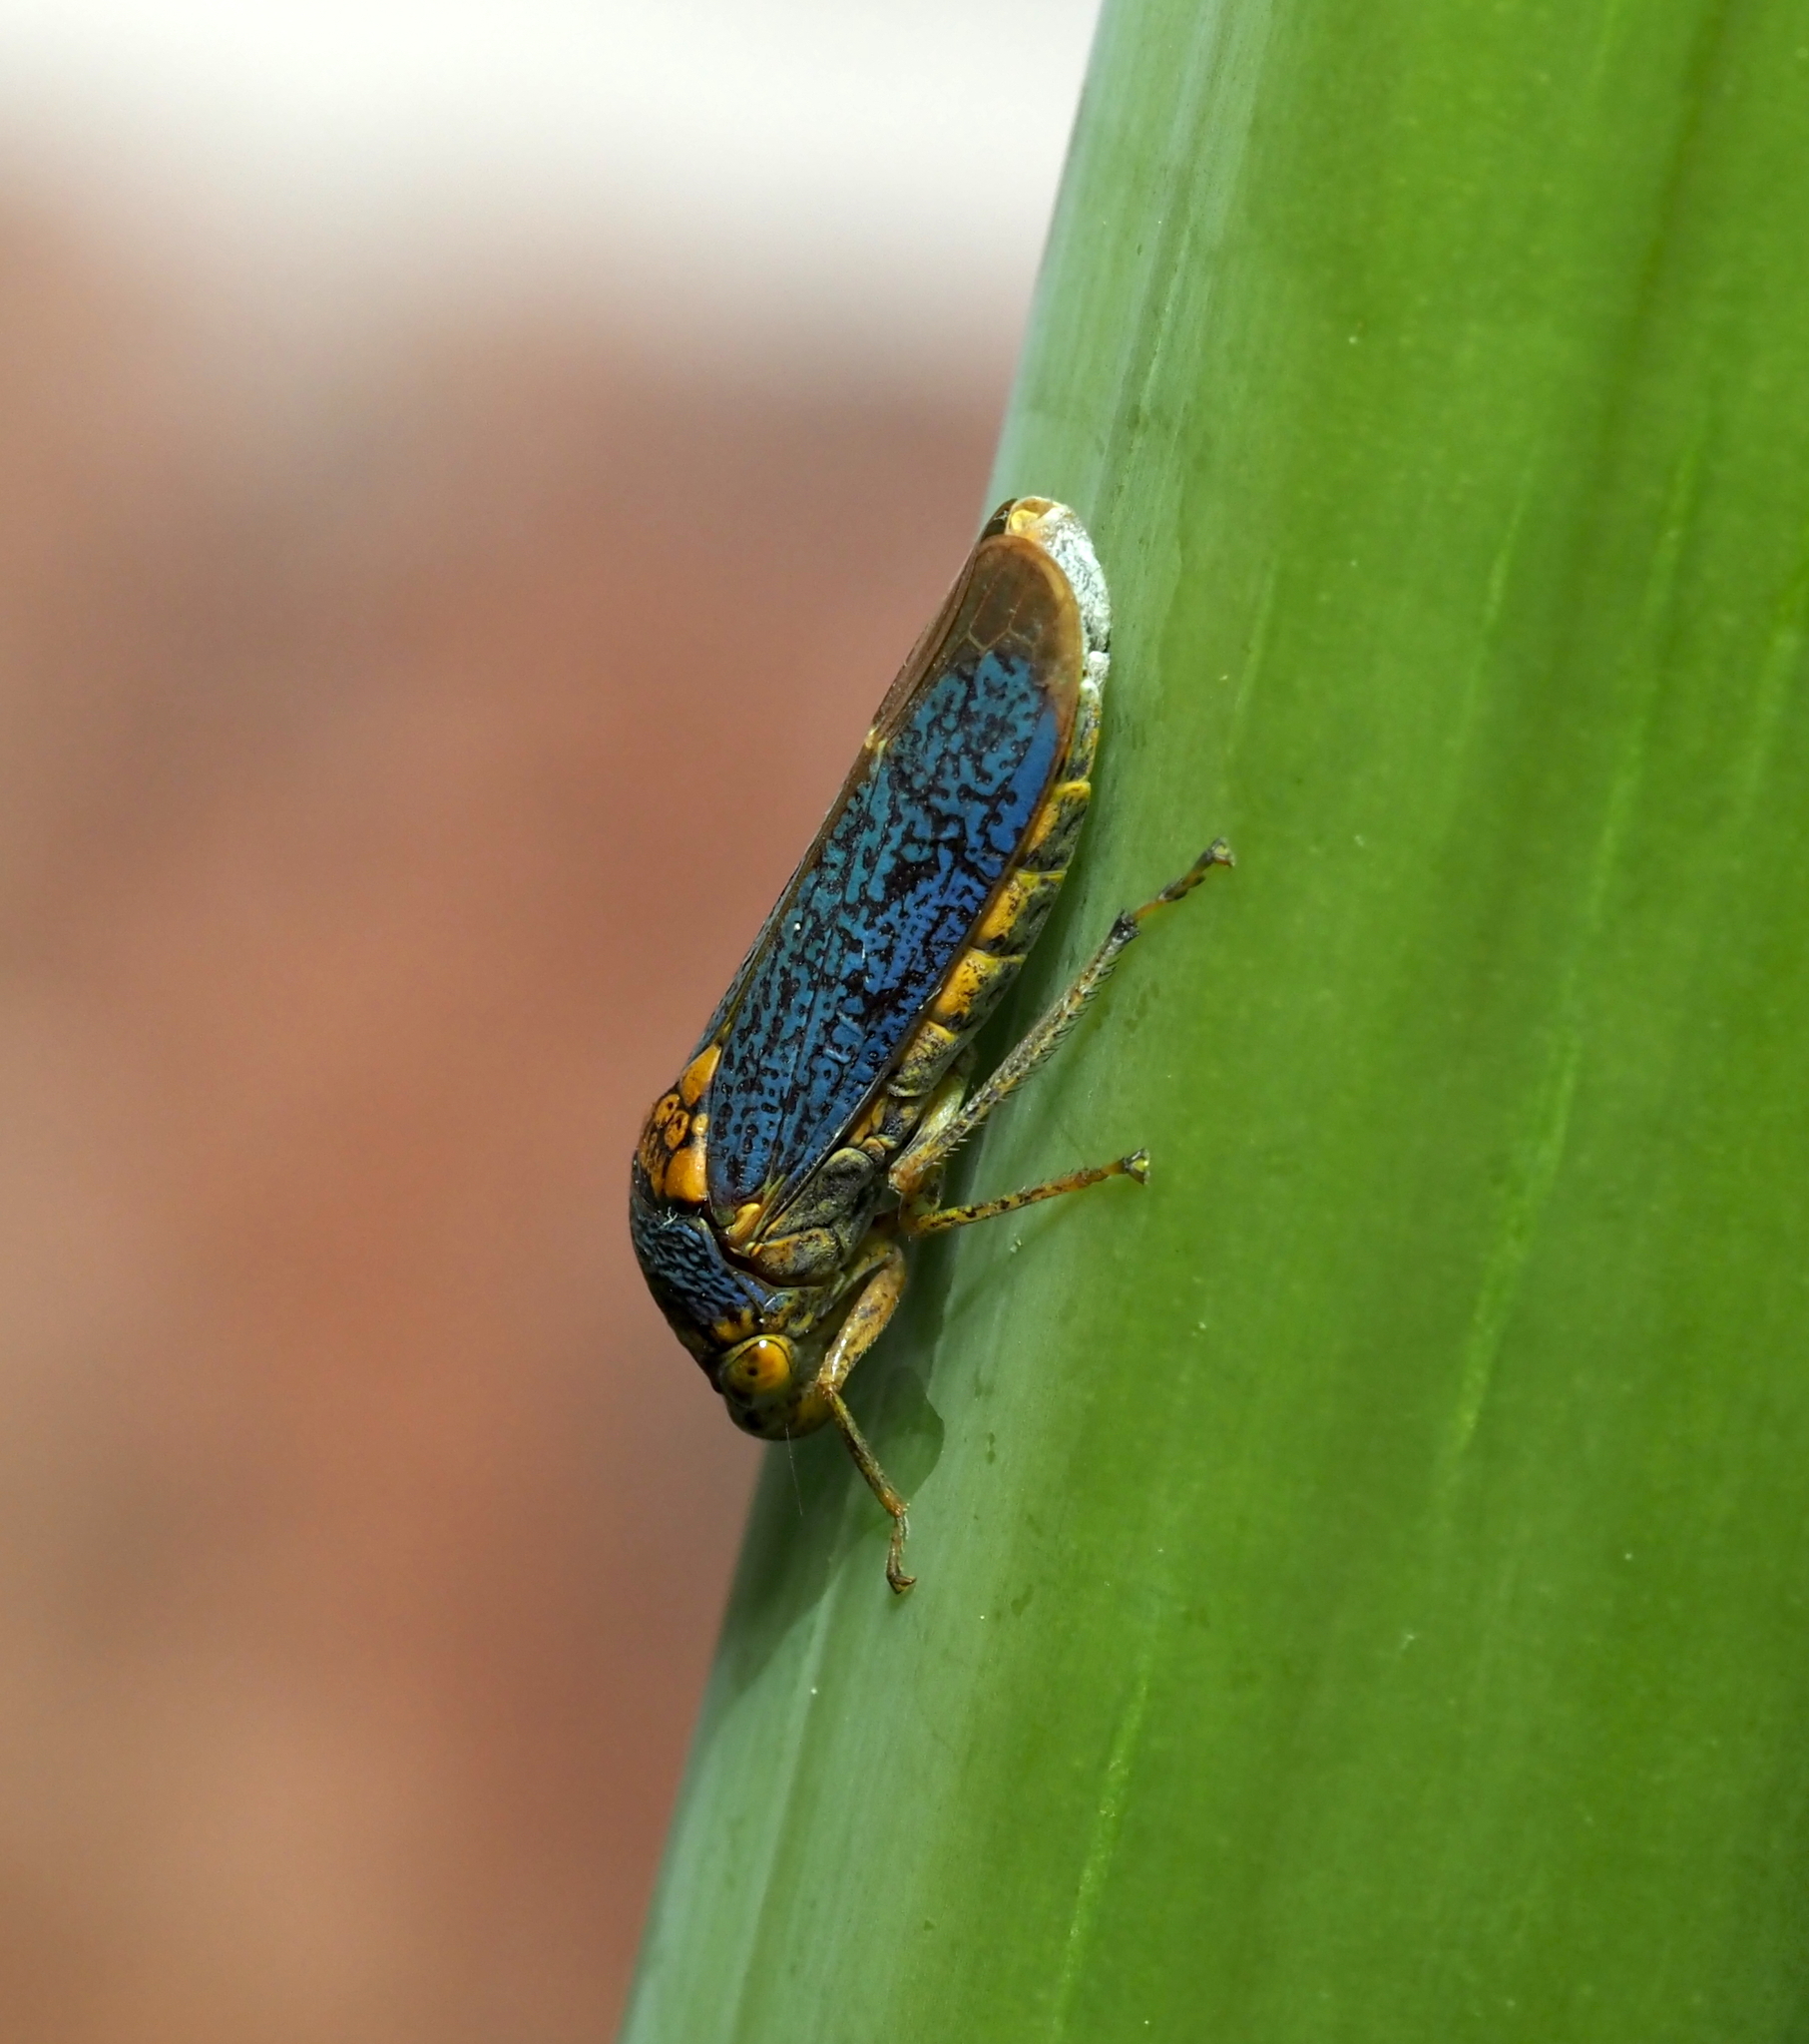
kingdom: Animalia
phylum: Arthropoda
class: Insecta
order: Hemiptera
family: Cicadellidae
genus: Oncometopia
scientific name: Oncometopia orbona
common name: Broad-headed sharpshooter
